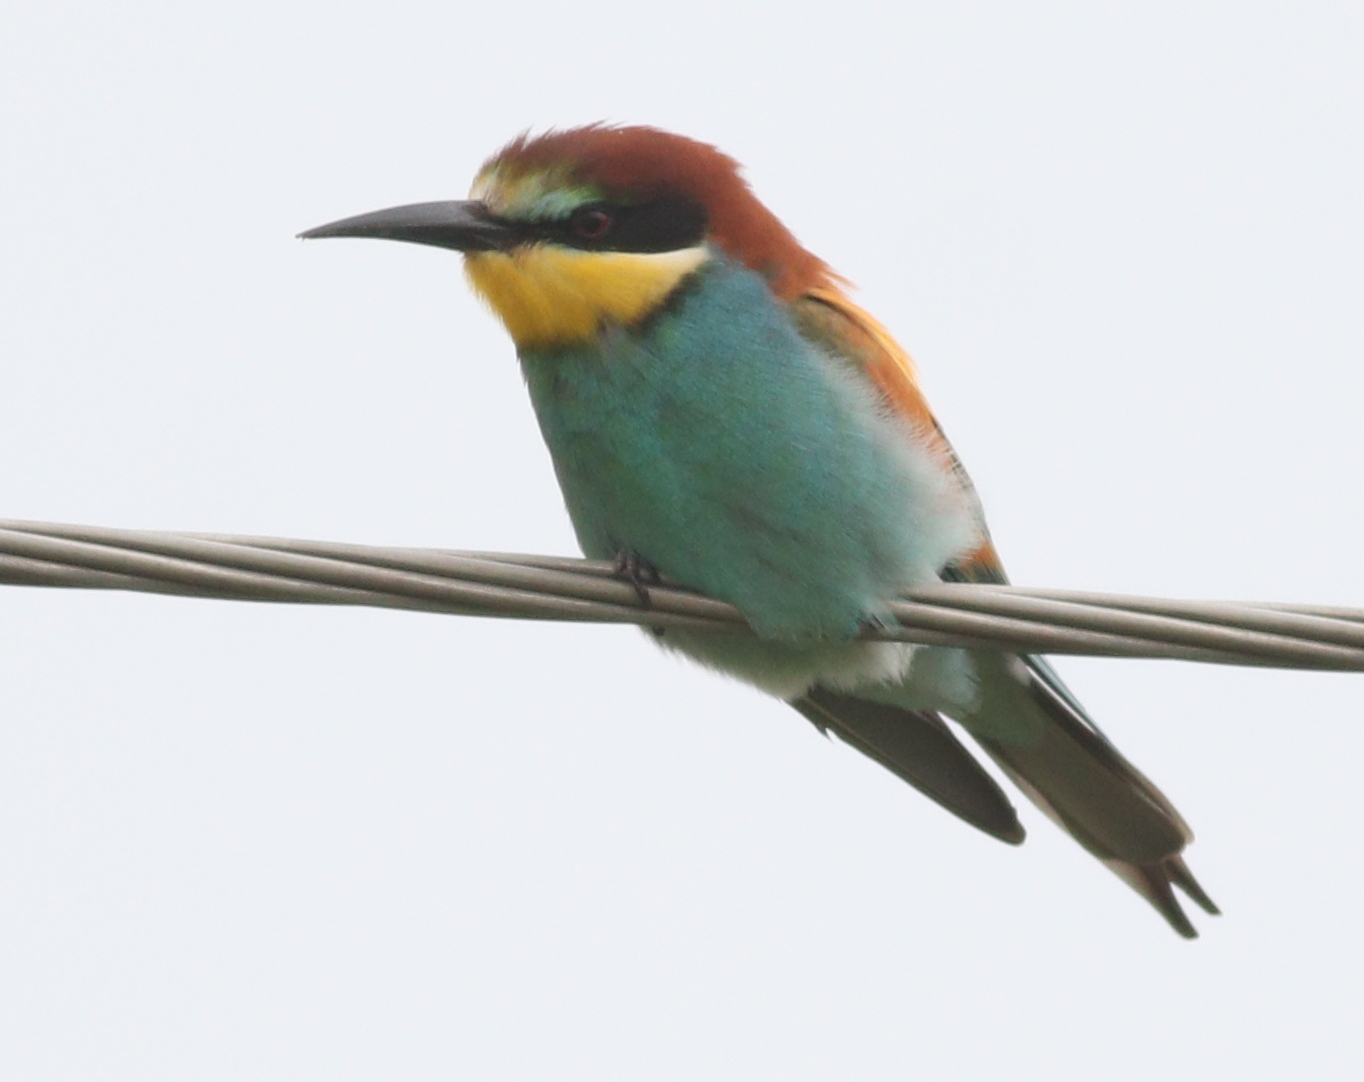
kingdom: Animalia
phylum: Chordata
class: Aves
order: Coraciiformes
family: Meropidae
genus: Merops
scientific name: Merops apiaster
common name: European bee-eater
